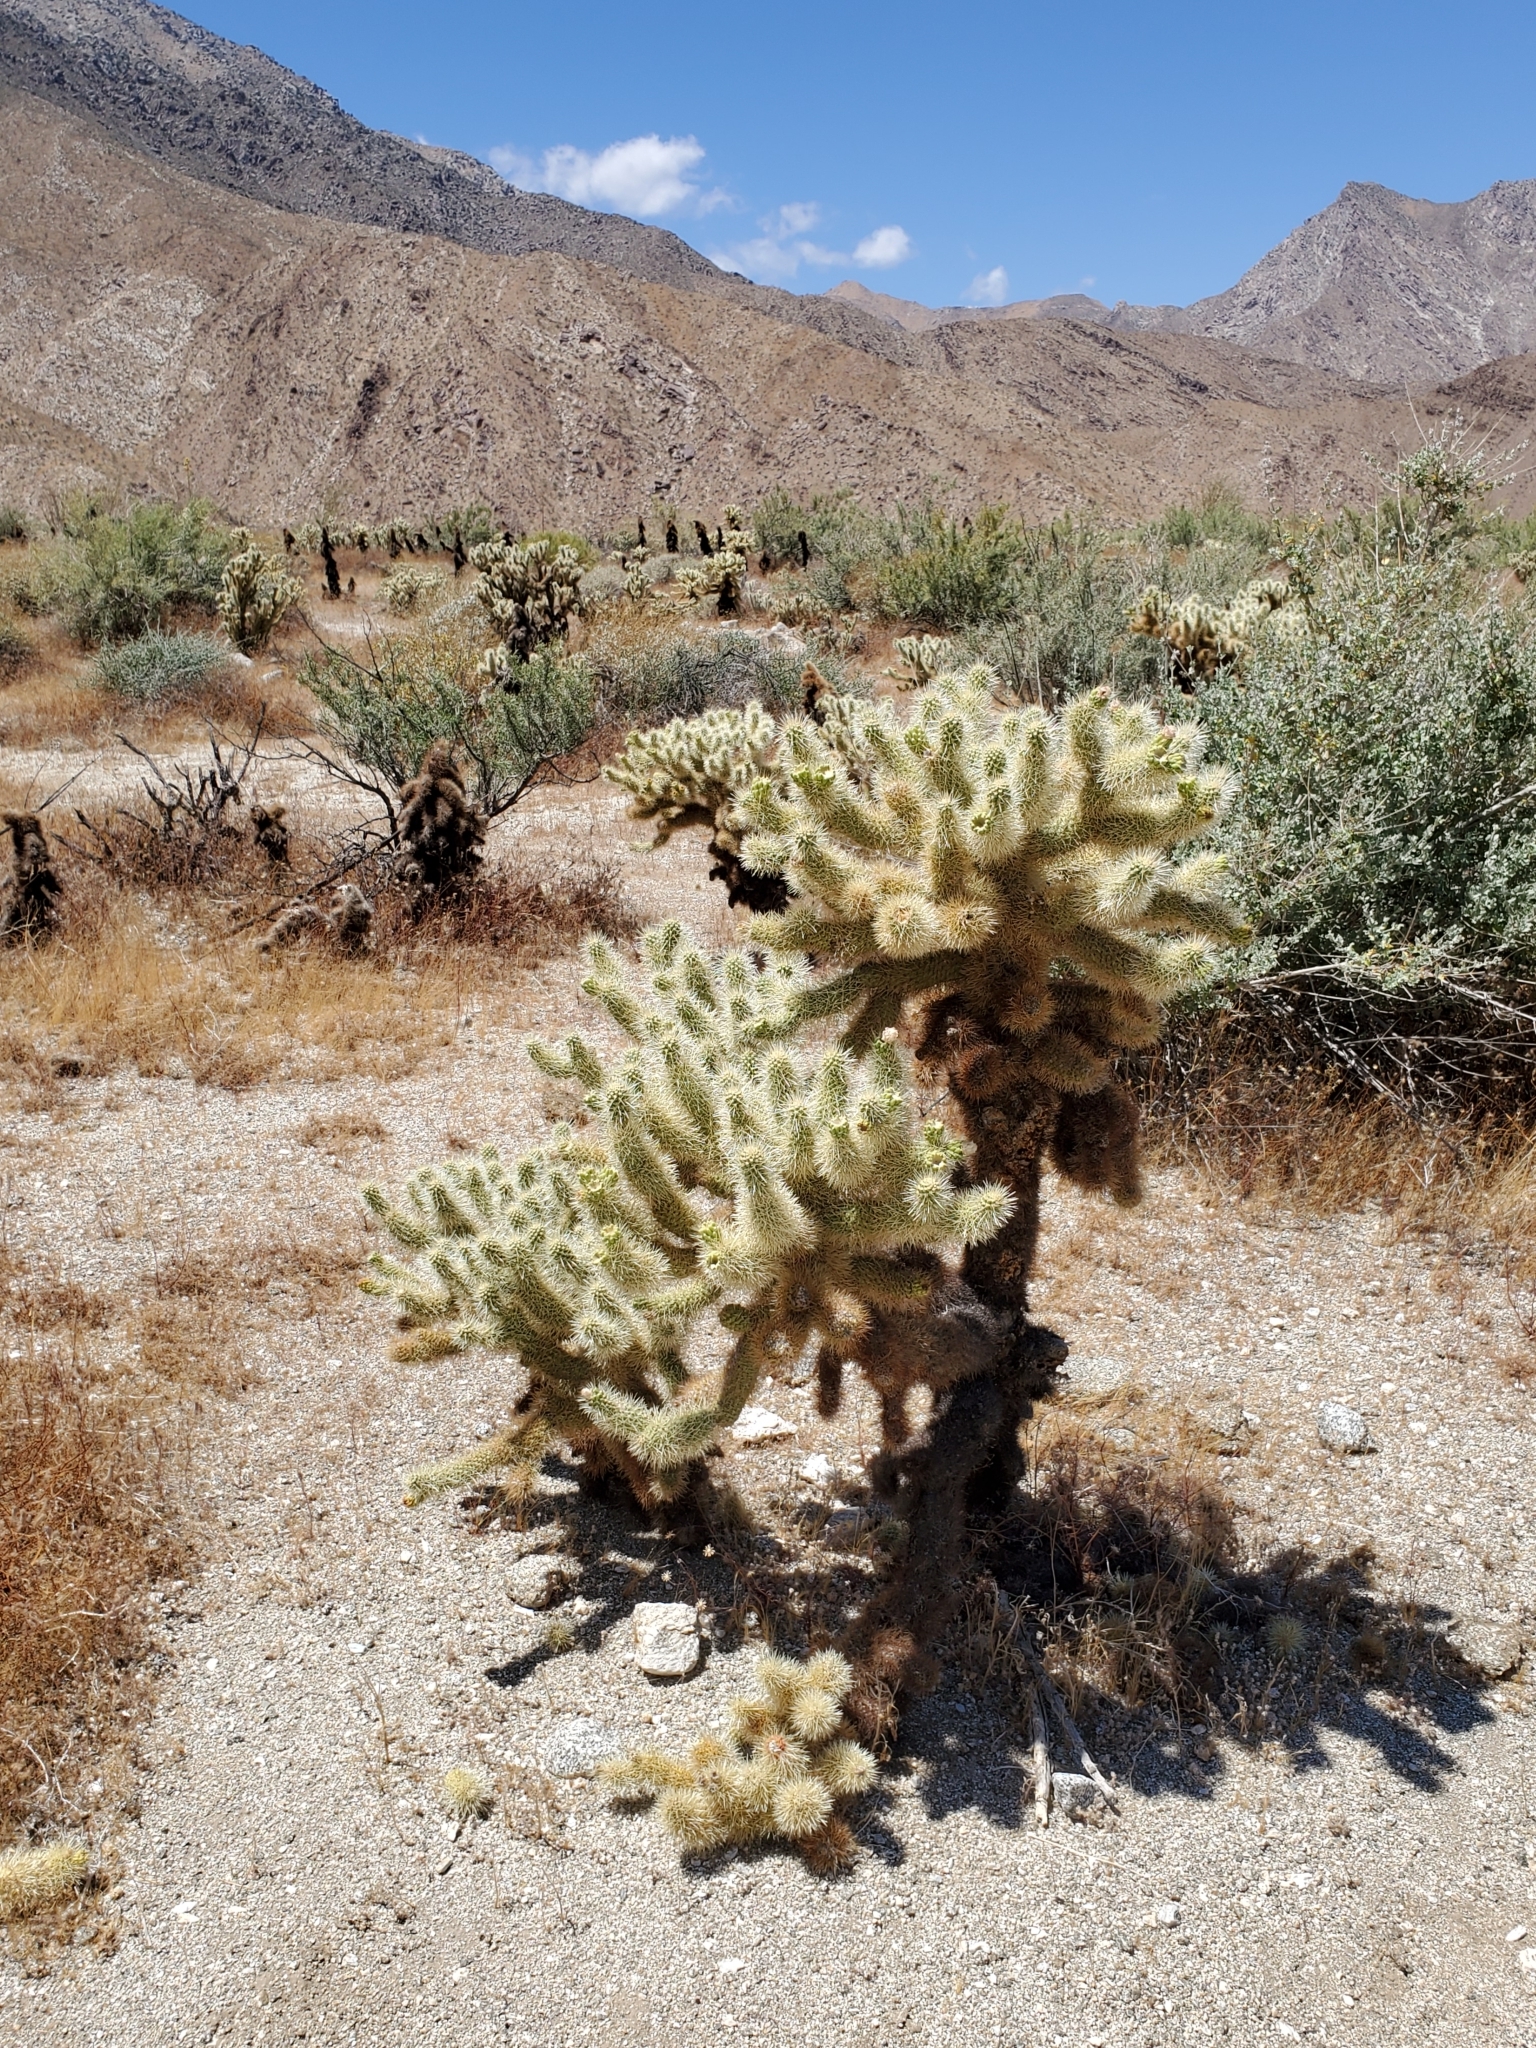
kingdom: Plantae
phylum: Tracheophyta
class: Magnoliopsida
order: Caryophyllales
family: Cactaceae
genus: Cylindropuntia
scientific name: Cylindropuntia fosbergii
